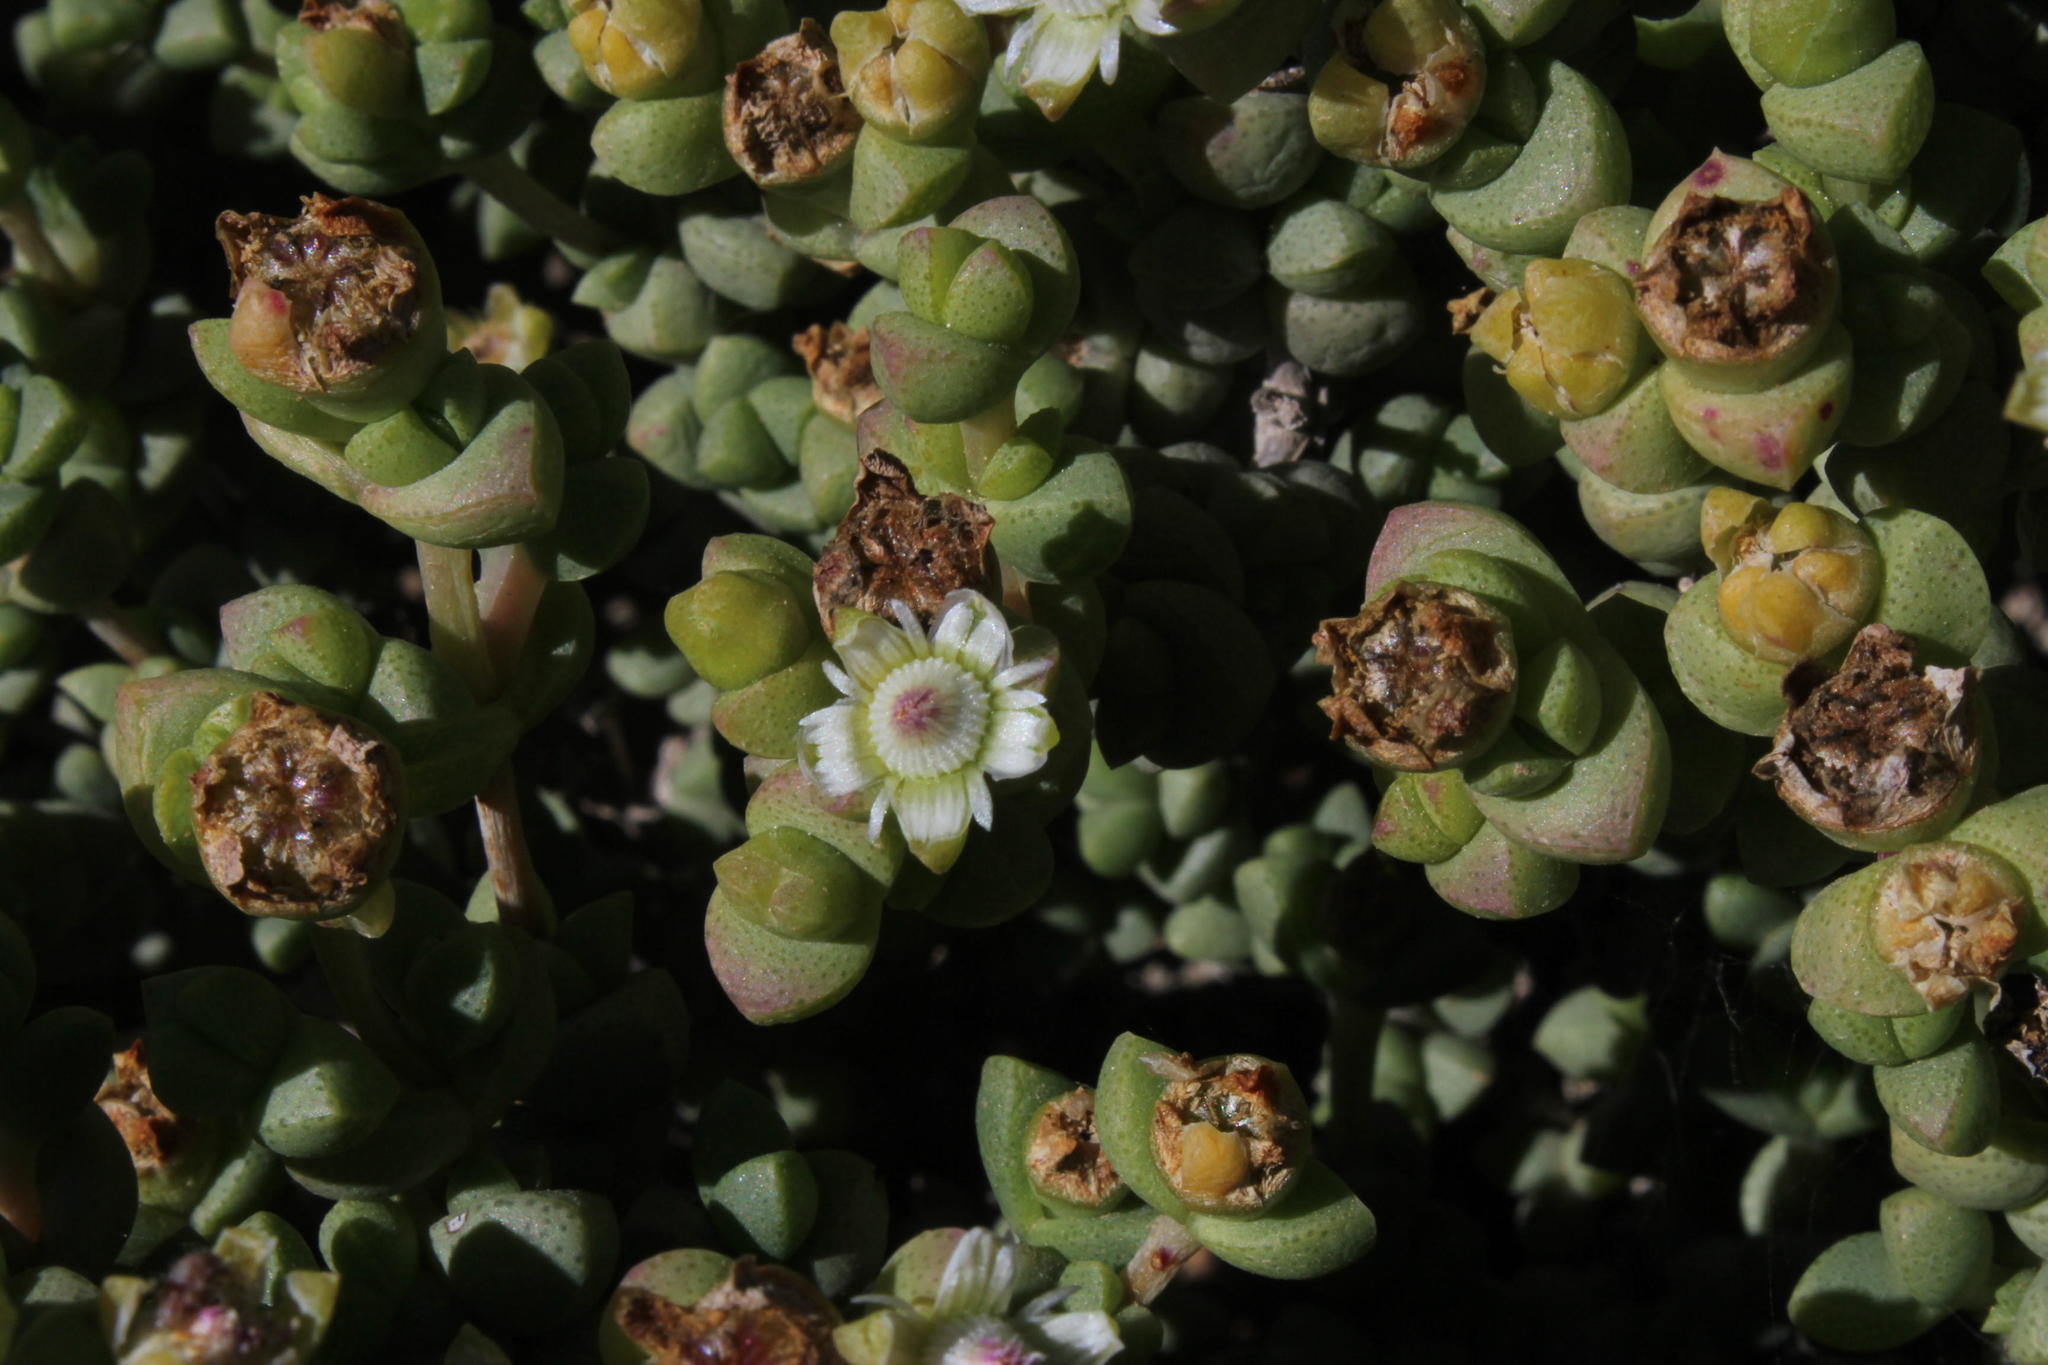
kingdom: Plantae
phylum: Tracheophyta
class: Magnoliopsida
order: Caryophyllales
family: Aizoaceae
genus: Amphibolia
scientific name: Amphibolia rupis-arcuatae
